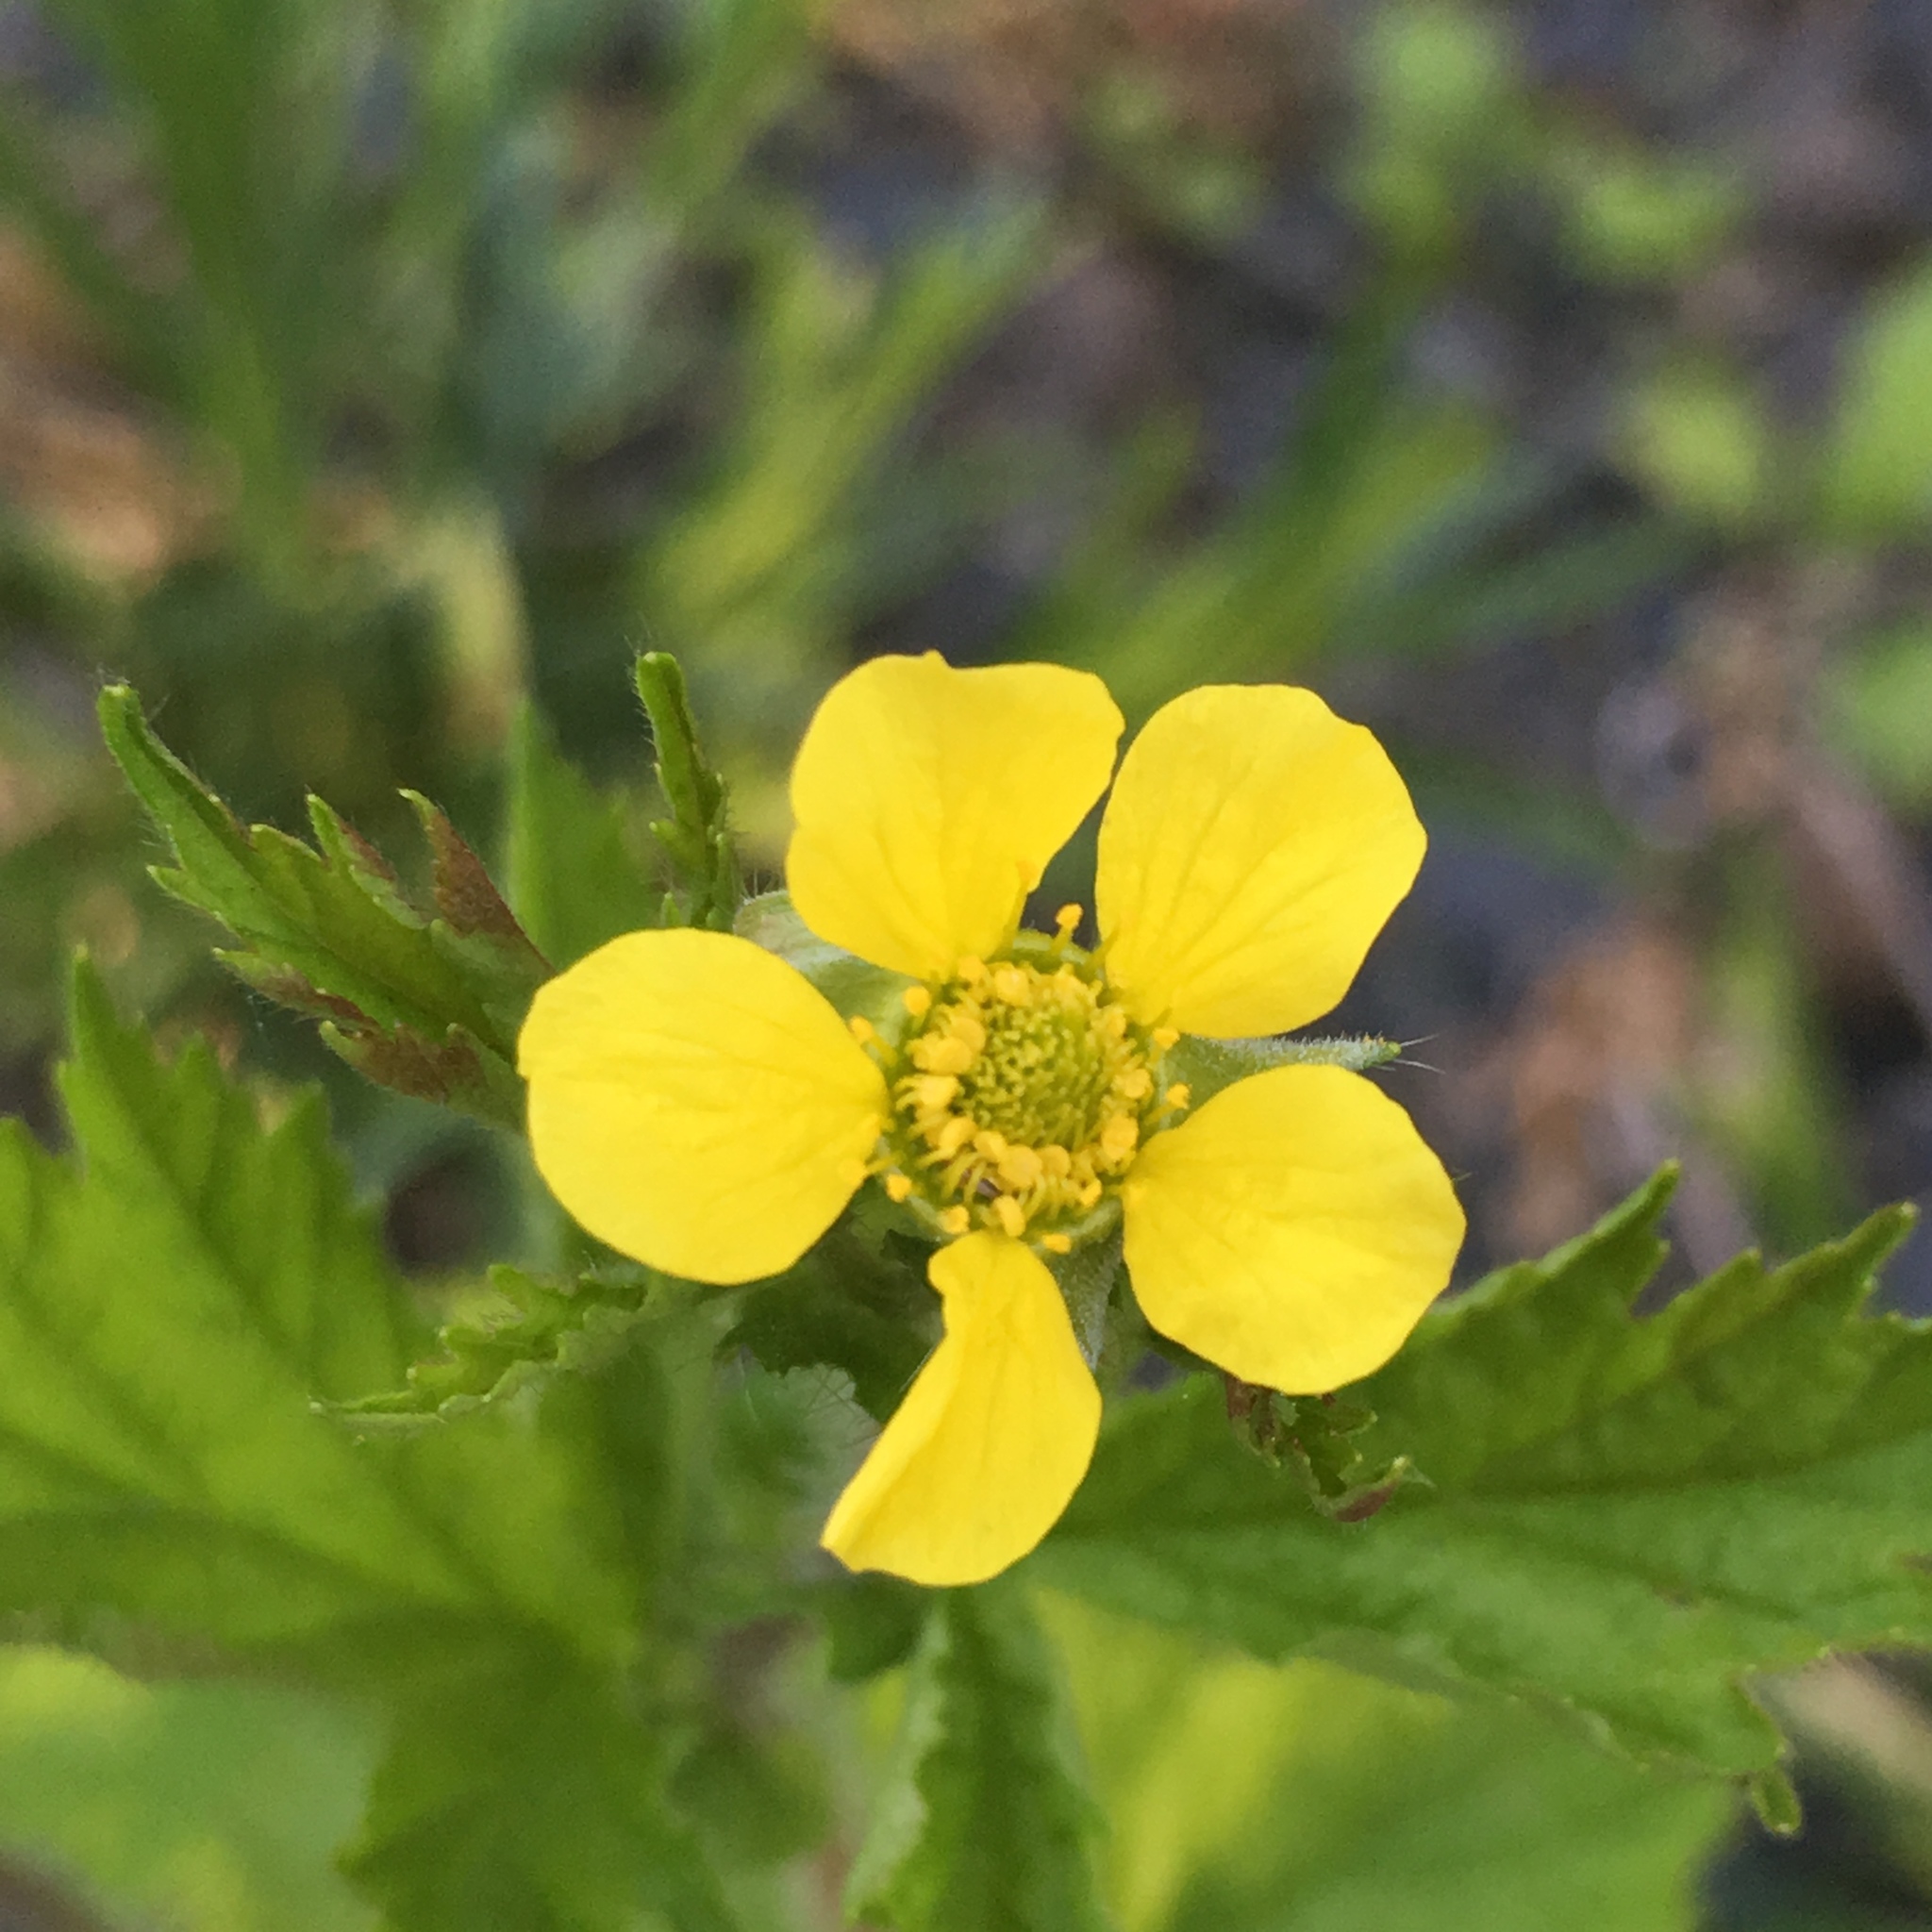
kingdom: Plantae
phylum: Tracheophyta
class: Magnoliopsida
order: Rosales
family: Rosaceae
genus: Geum
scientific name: Geum macrophyllum
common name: Large-leaved avens
